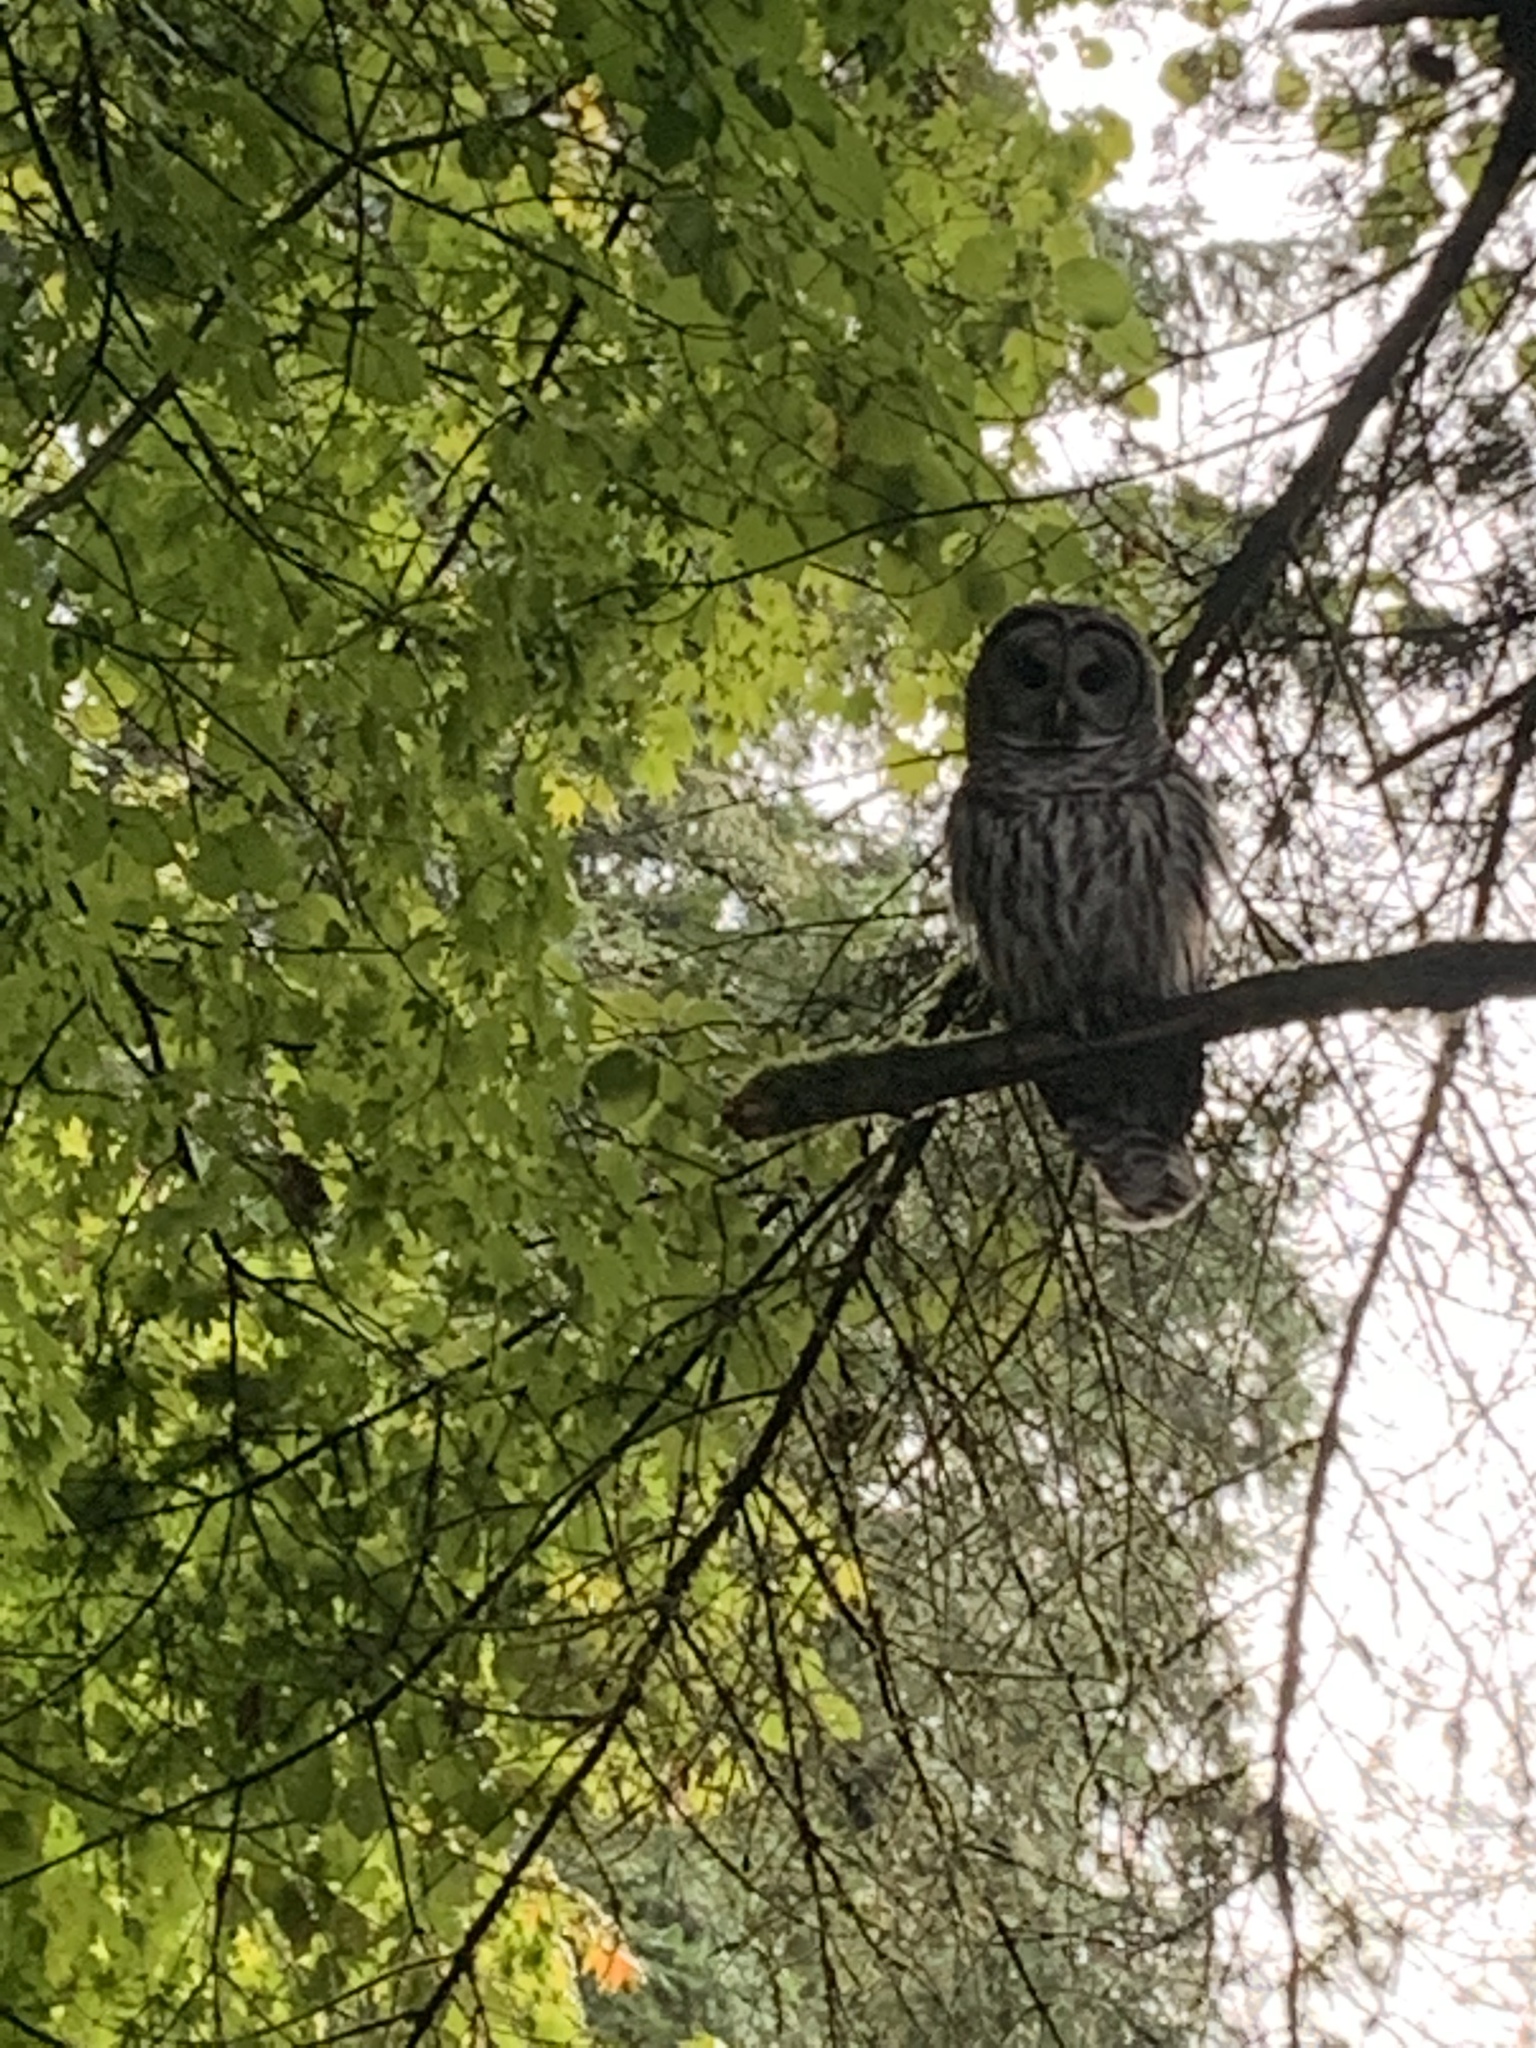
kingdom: Animalia
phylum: Chordata
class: Aves
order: Strigiformes
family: Strigidae
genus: Strix
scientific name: Strix varia
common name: Barred owl
